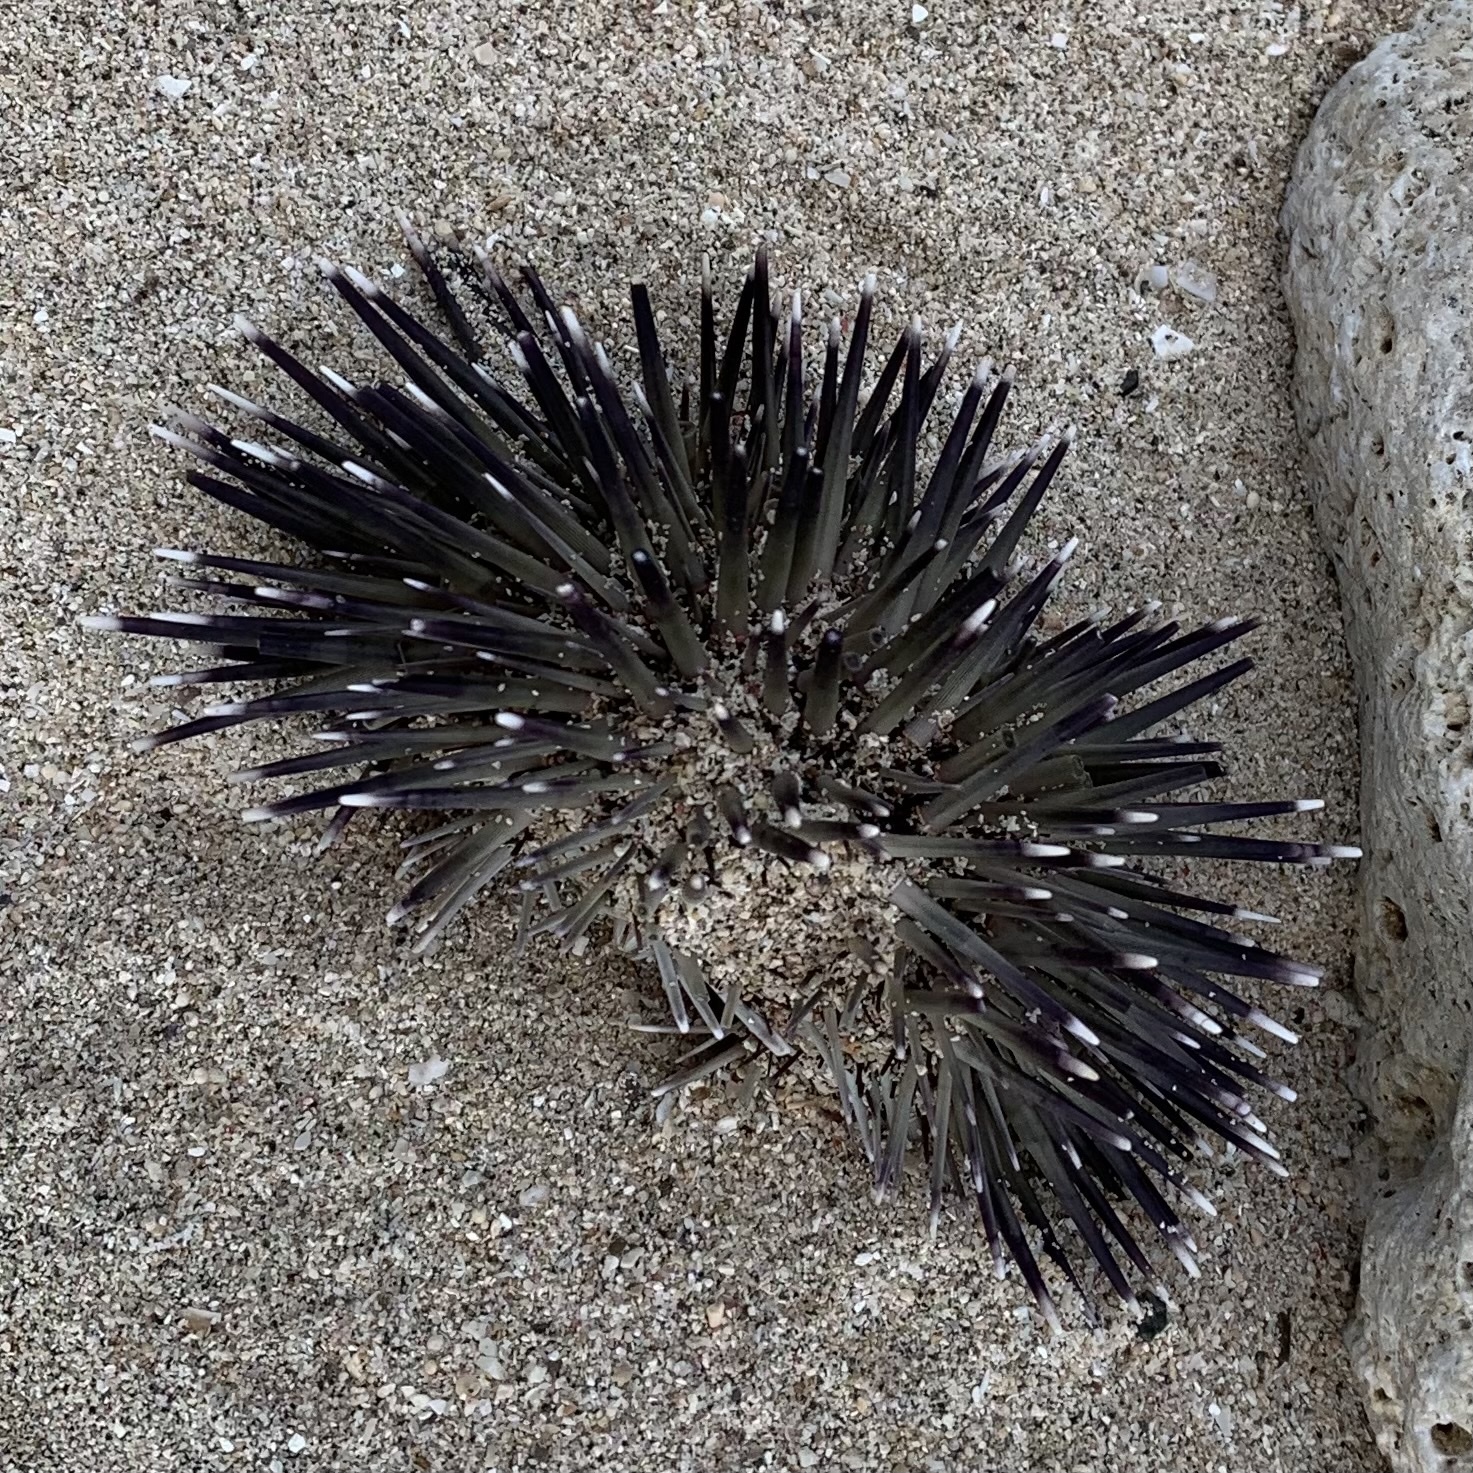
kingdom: Animalia
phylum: Echinodermata
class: Echinoidea
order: Camarodonta
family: Echinometridae
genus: Echinometra
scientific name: Echinometra mathaei
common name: Rock-boring urchin
